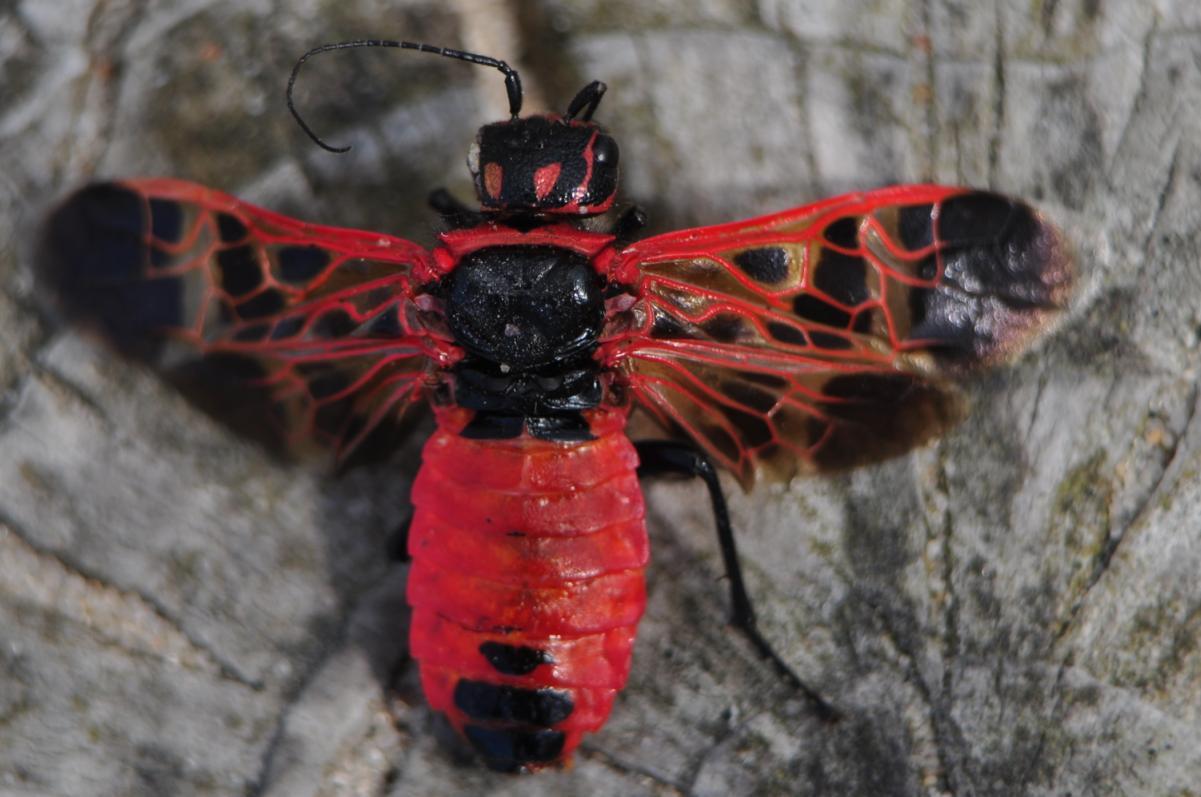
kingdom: Animalia
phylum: Arthropoda
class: Insecta
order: Hymenoptera
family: Pamphiliidae
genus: Caenolyda
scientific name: Caenolyda reticulata
